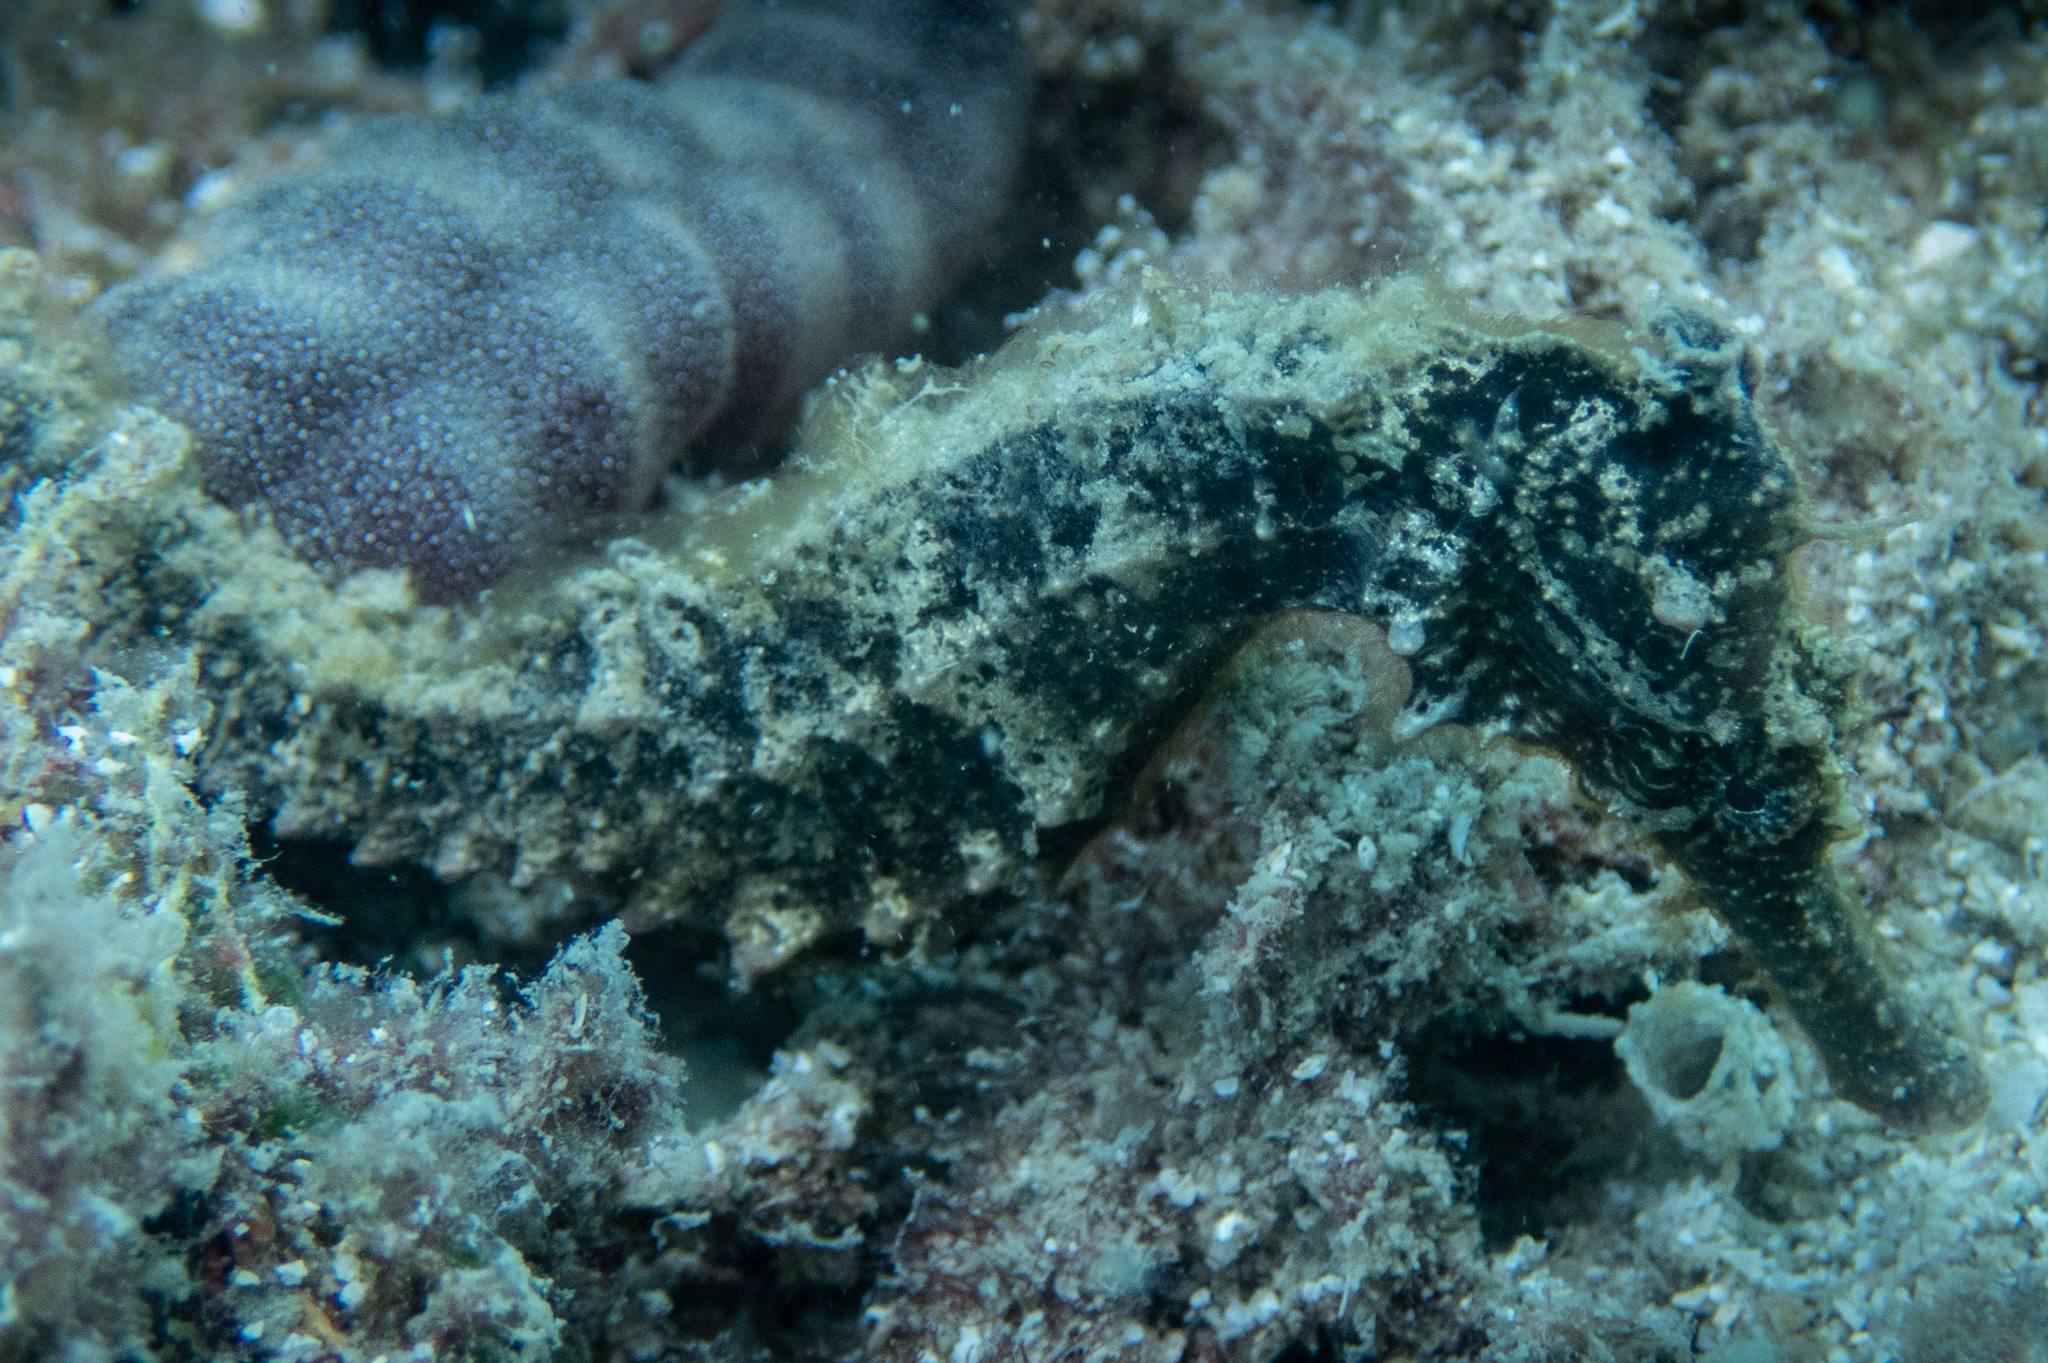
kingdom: Animalia
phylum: Chordata
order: Syngnathiformes
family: Syngnathidae
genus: Hippocampus
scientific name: Hippocampus kuda
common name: Spotted seahorse
